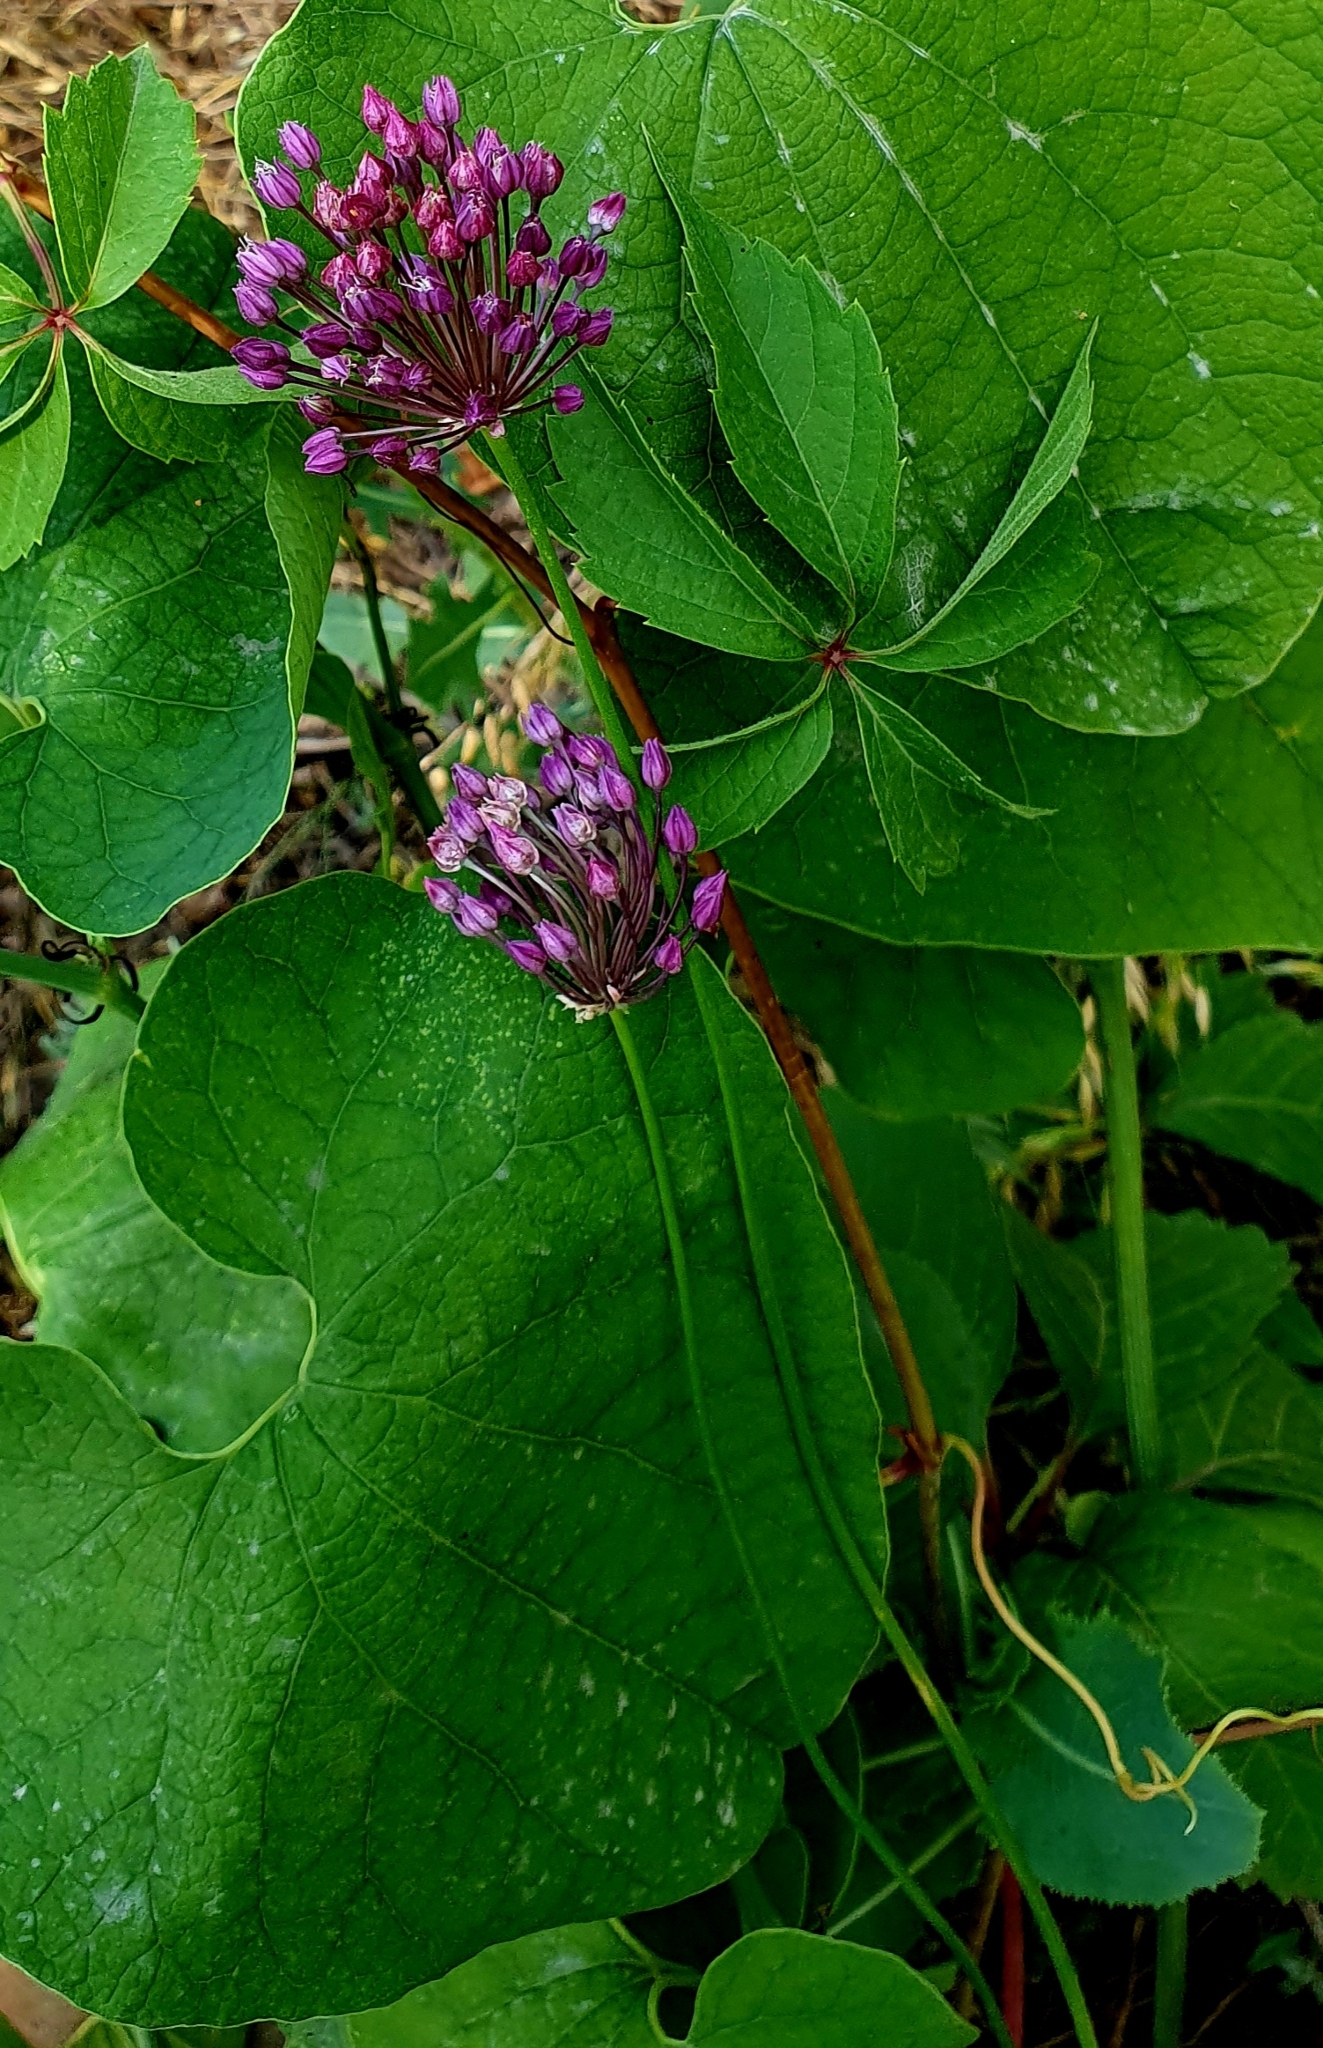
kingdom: Plantae
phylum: Tracheophyta
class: Liliopsida
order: Asparagales
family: Amaryllidaceae
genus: Allium
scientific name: Allium rotundum
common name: Sand leek
